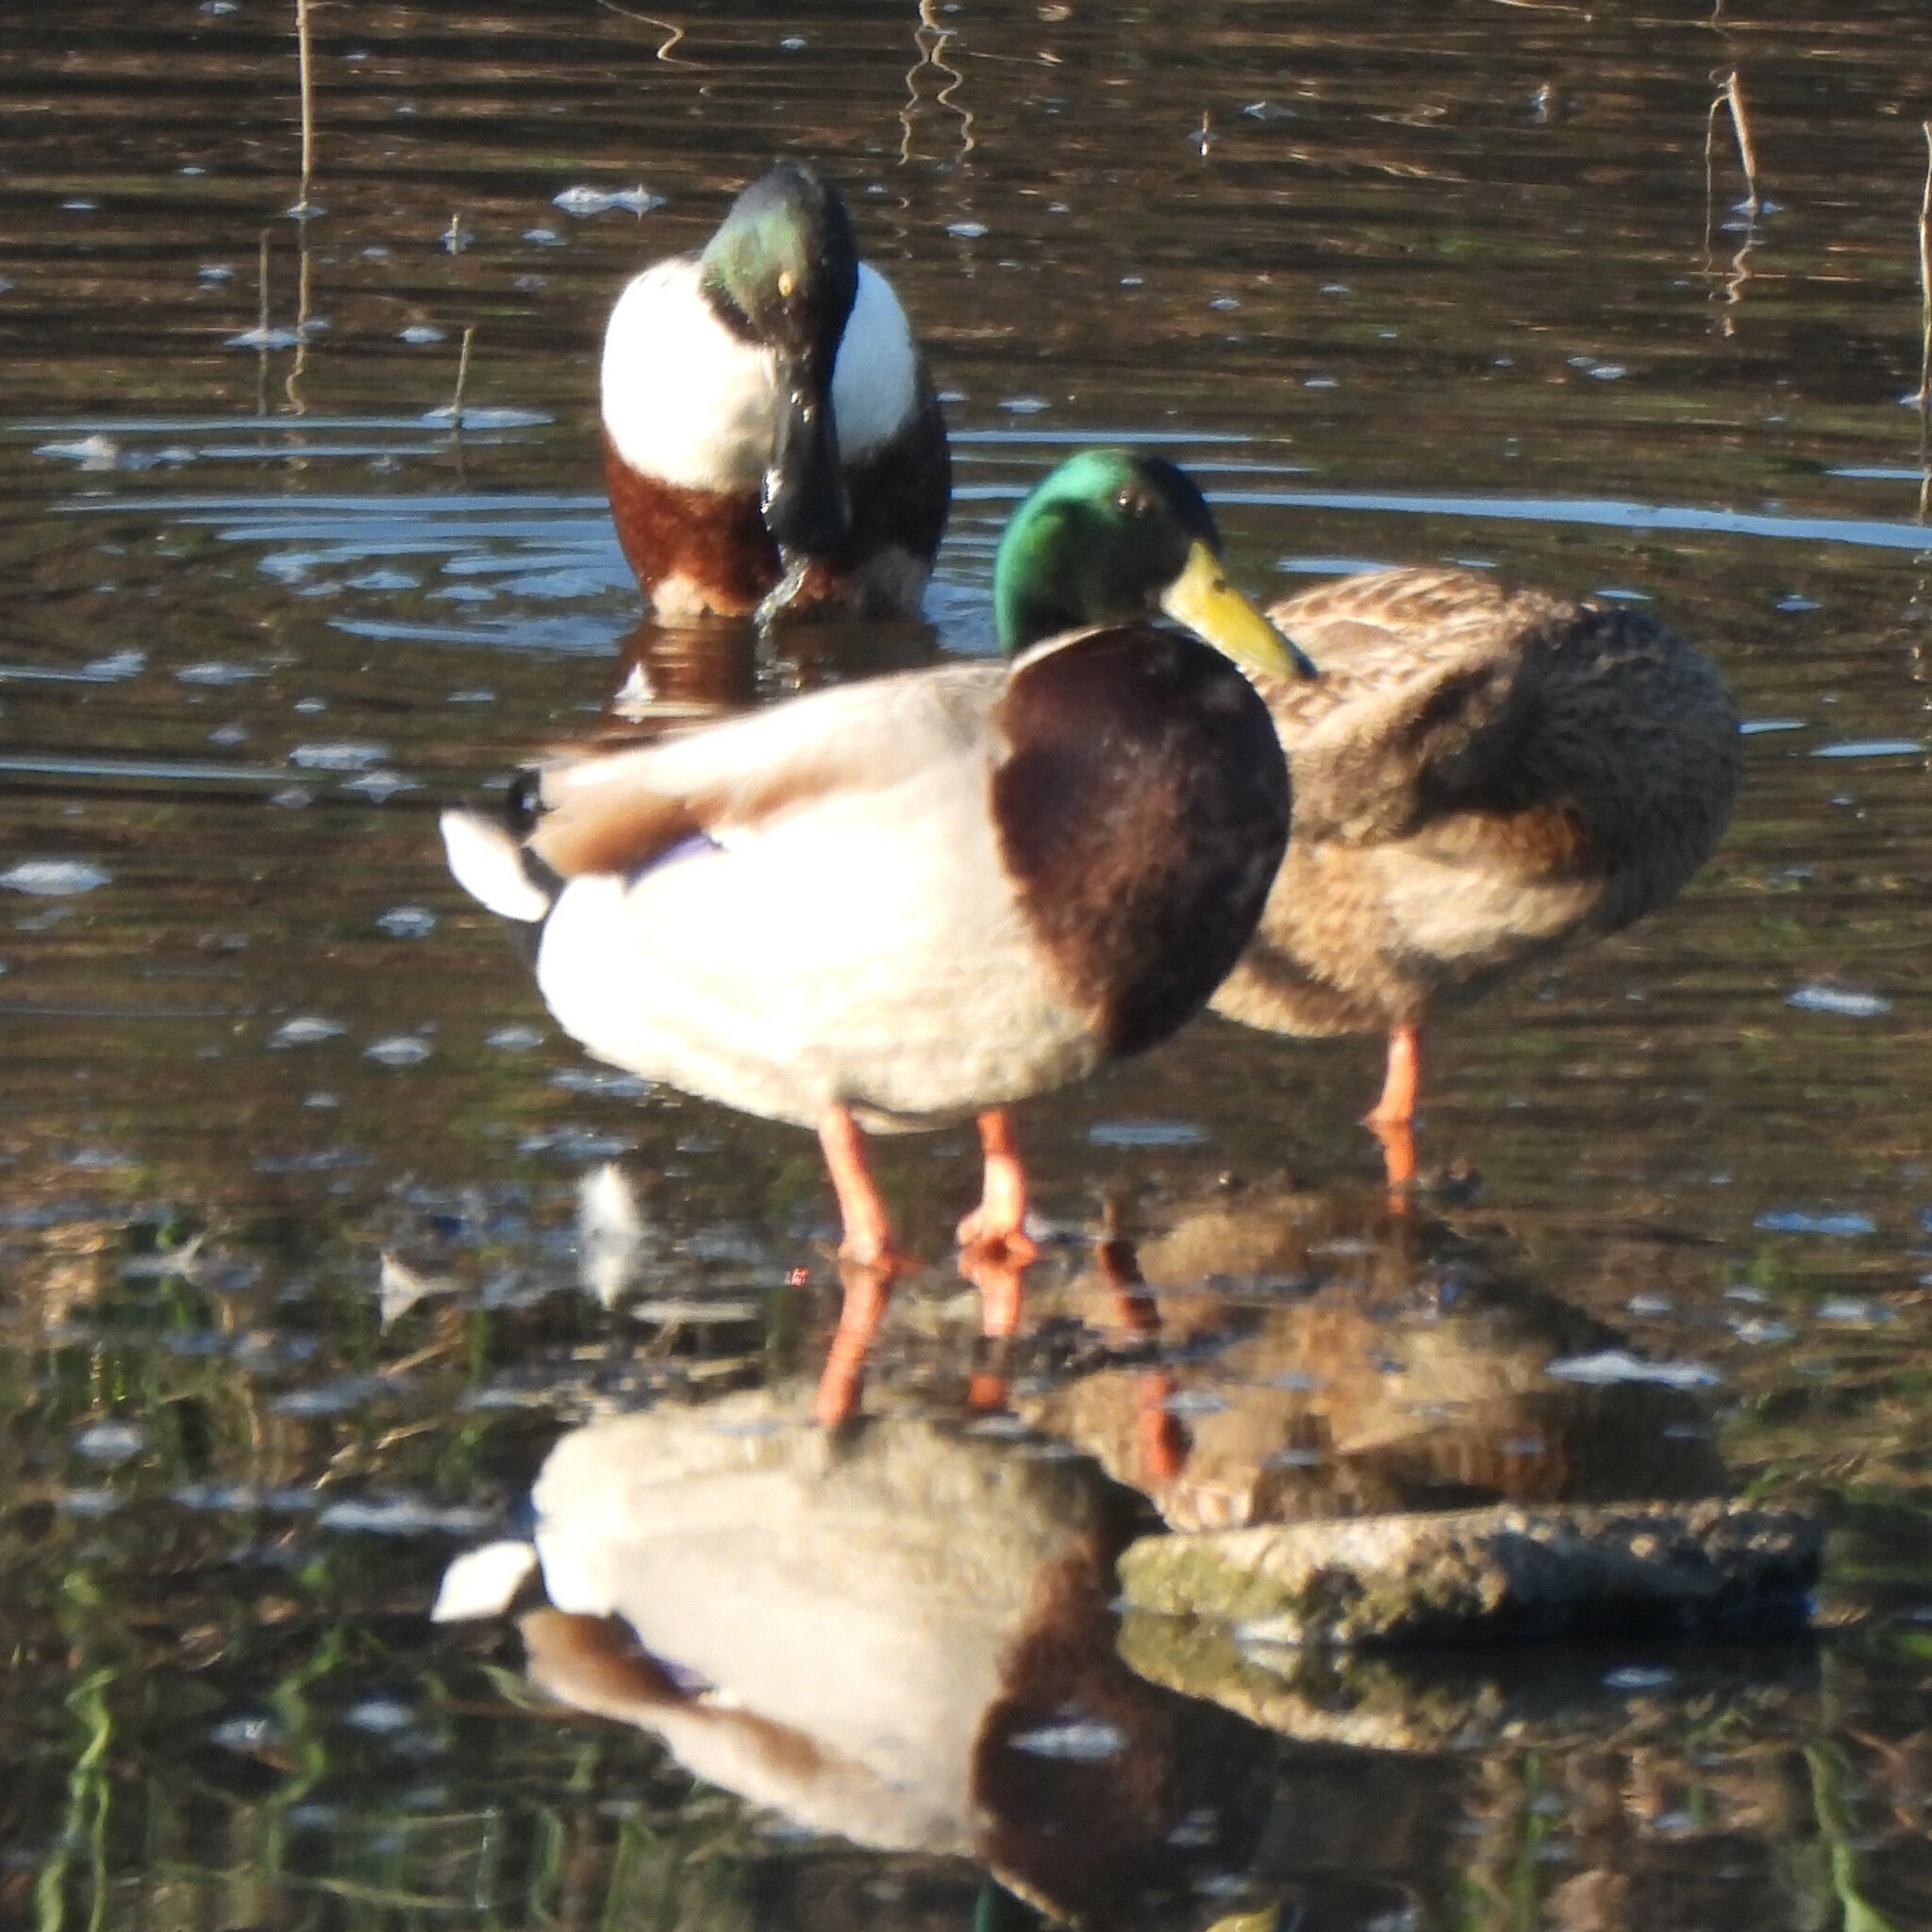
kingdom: Animalia
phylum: Chordata
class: Aves
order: Anseriformes
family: Anatidae
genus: Anas
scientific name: Anas platyrhynchos
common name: Mallard
